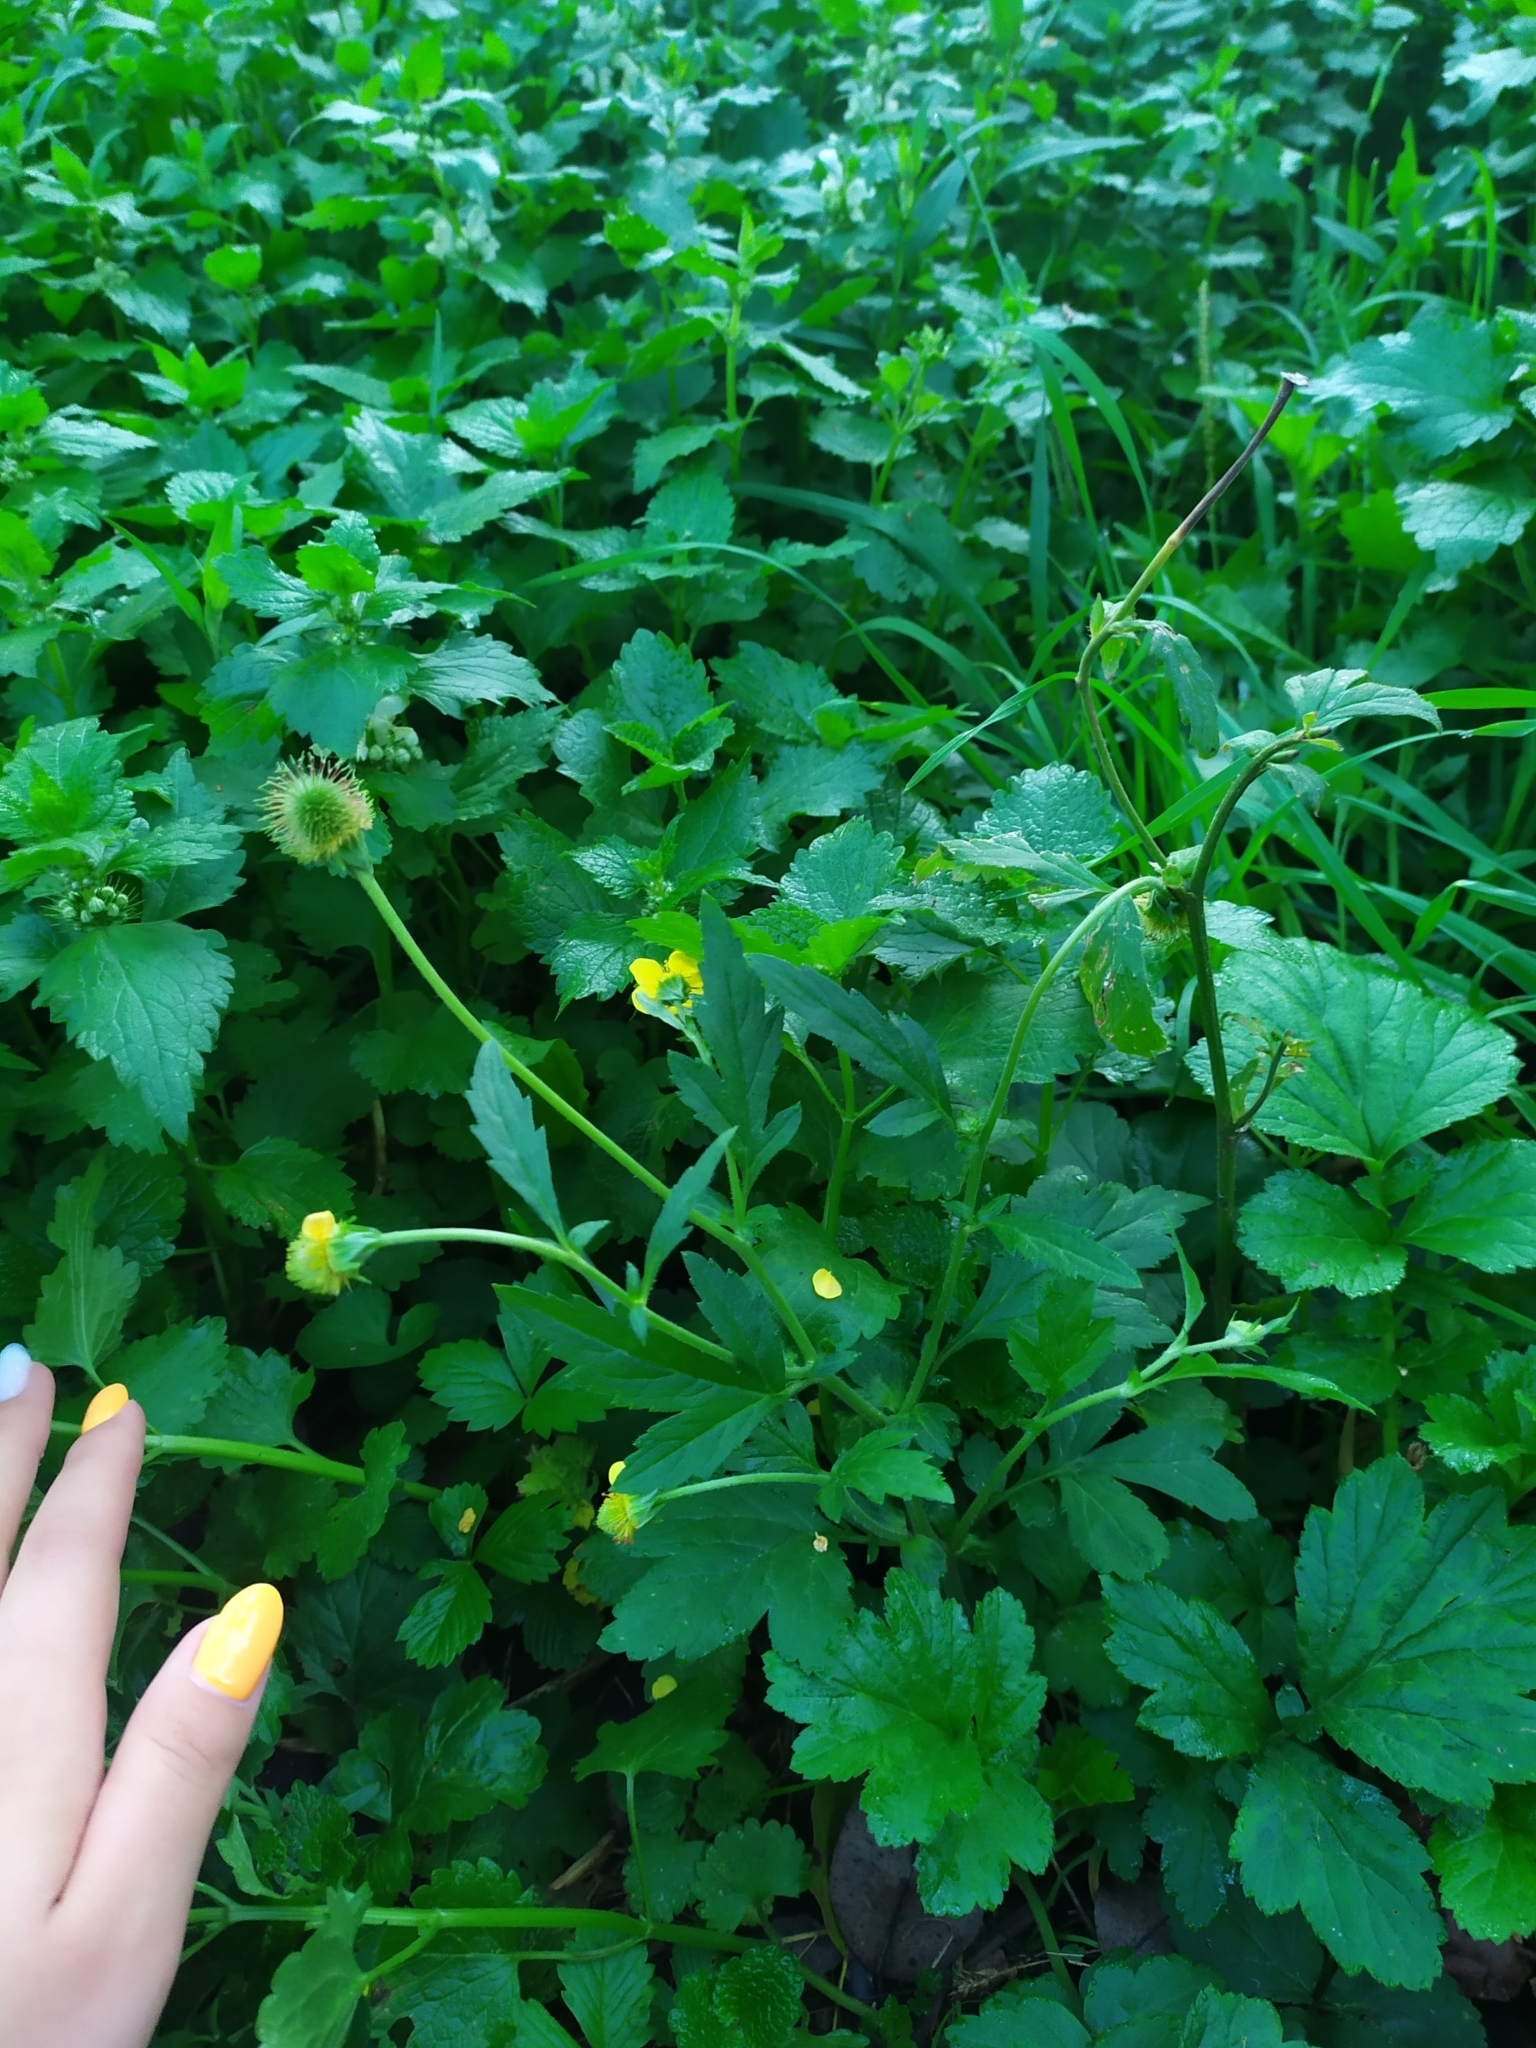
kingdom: Plantae
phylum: Tracheophyta
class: Magnoliopsida
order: Rosales
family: Rosaceae
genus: Geum
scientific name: Geum aleppicum
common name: Yellow avens
